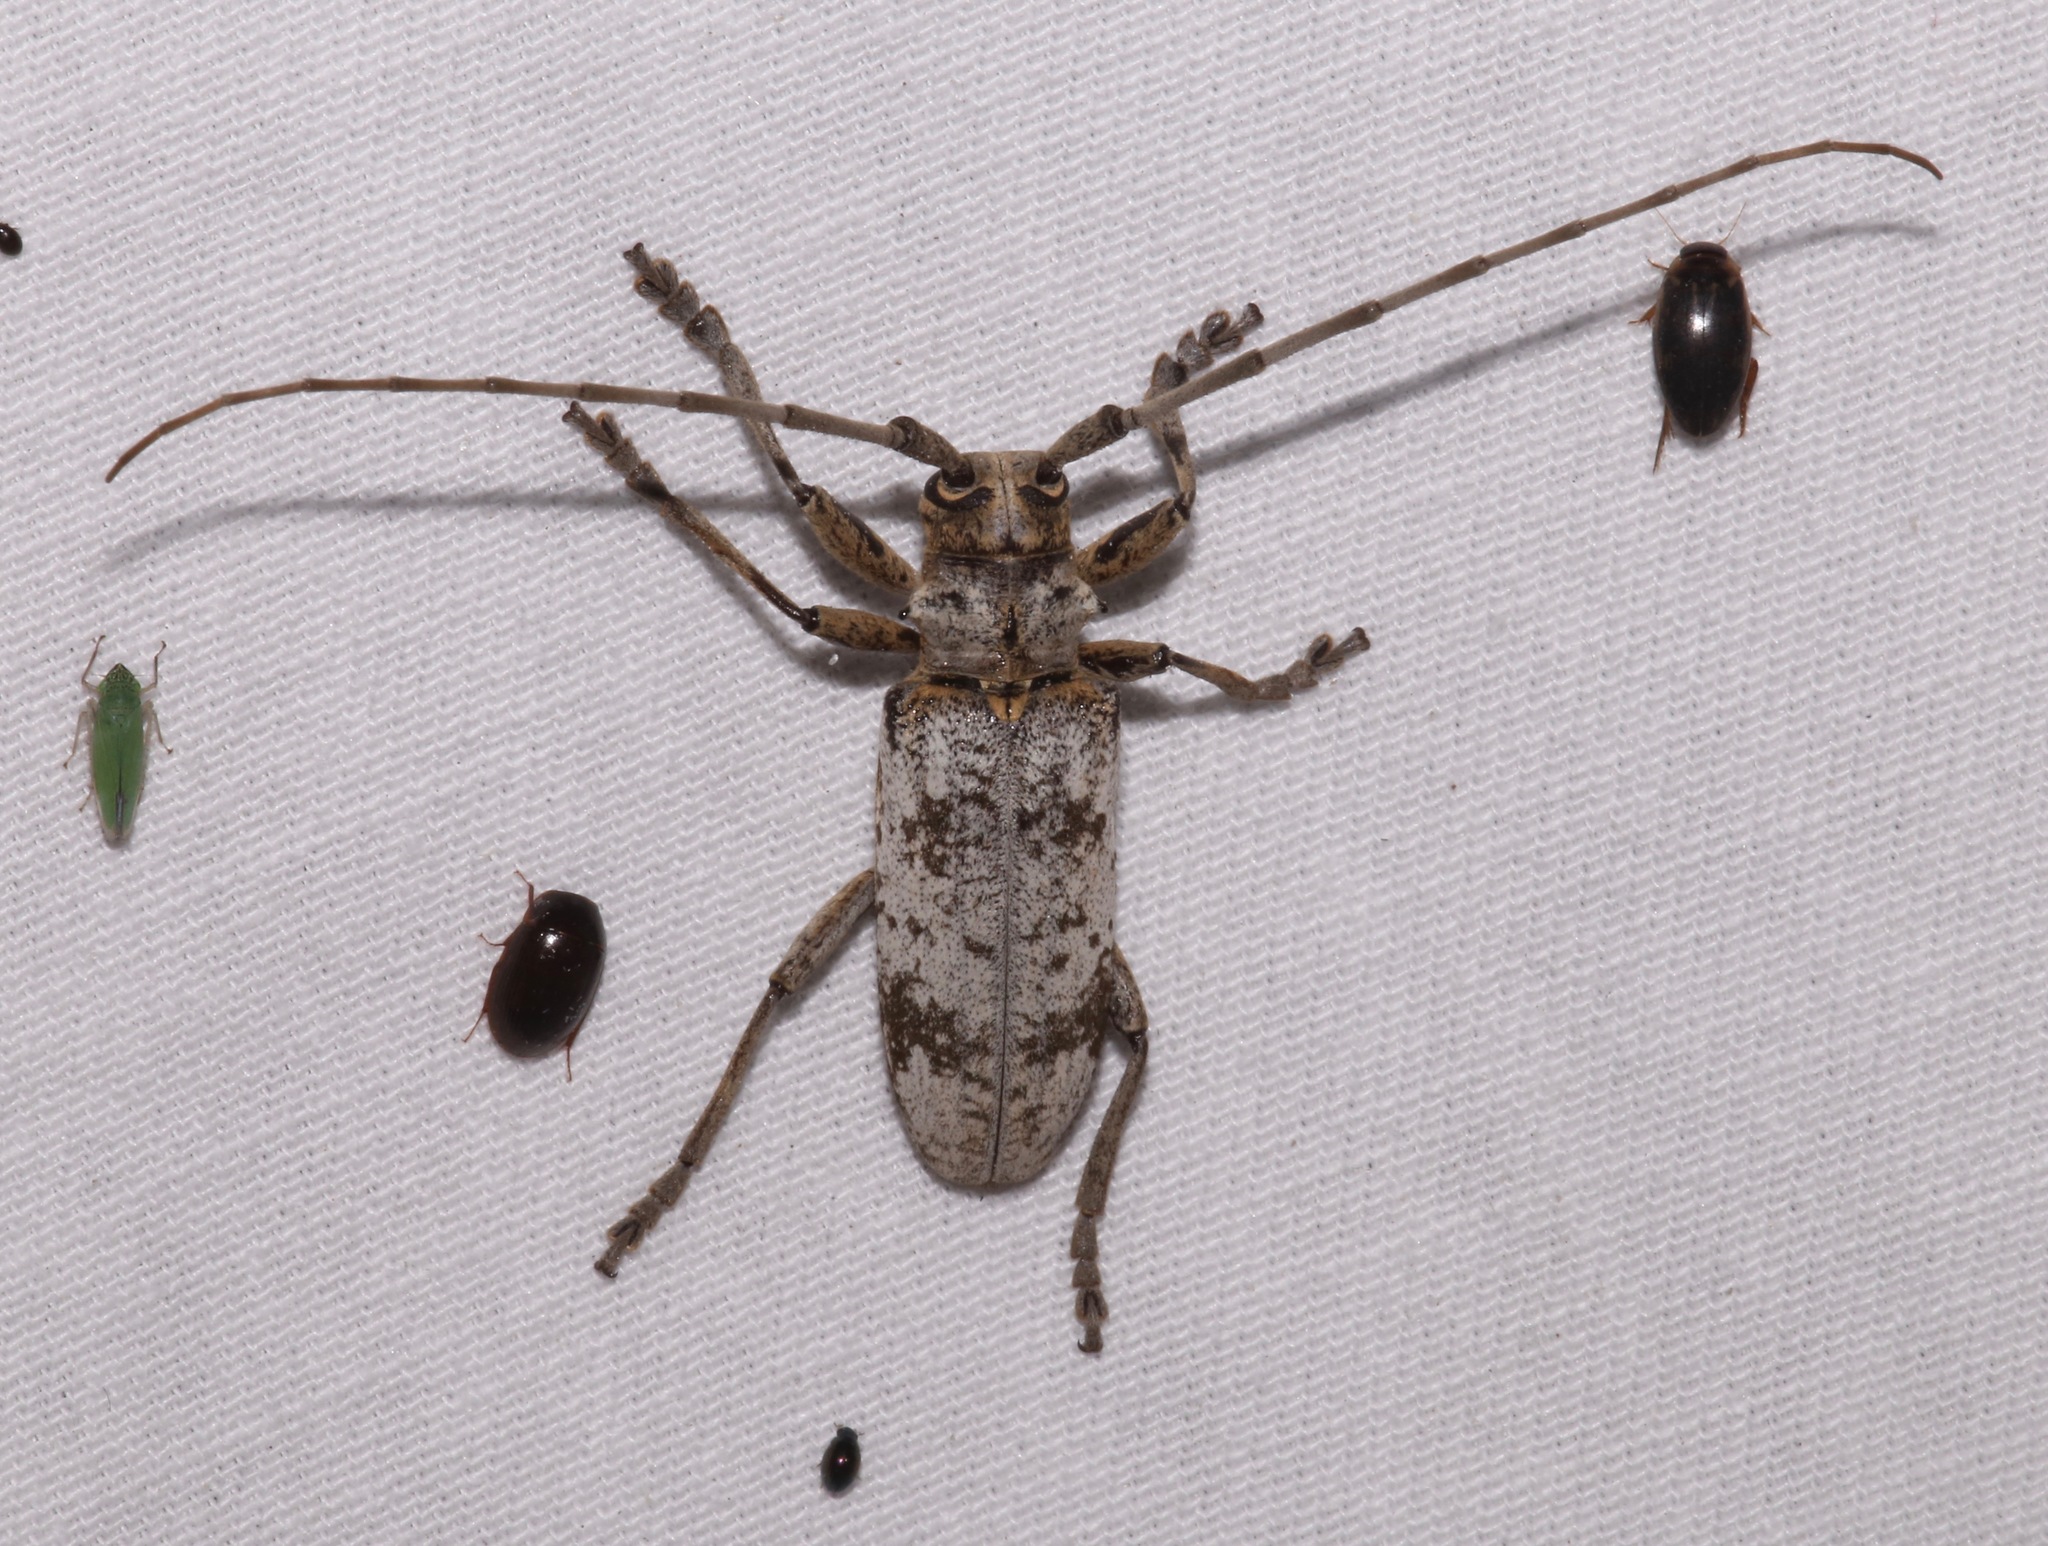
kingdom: Animalia
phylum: Arthropoda
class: Insecta
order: Coleoptera
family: Cerambycidae
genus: Goes
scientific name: Goes tigrinus
